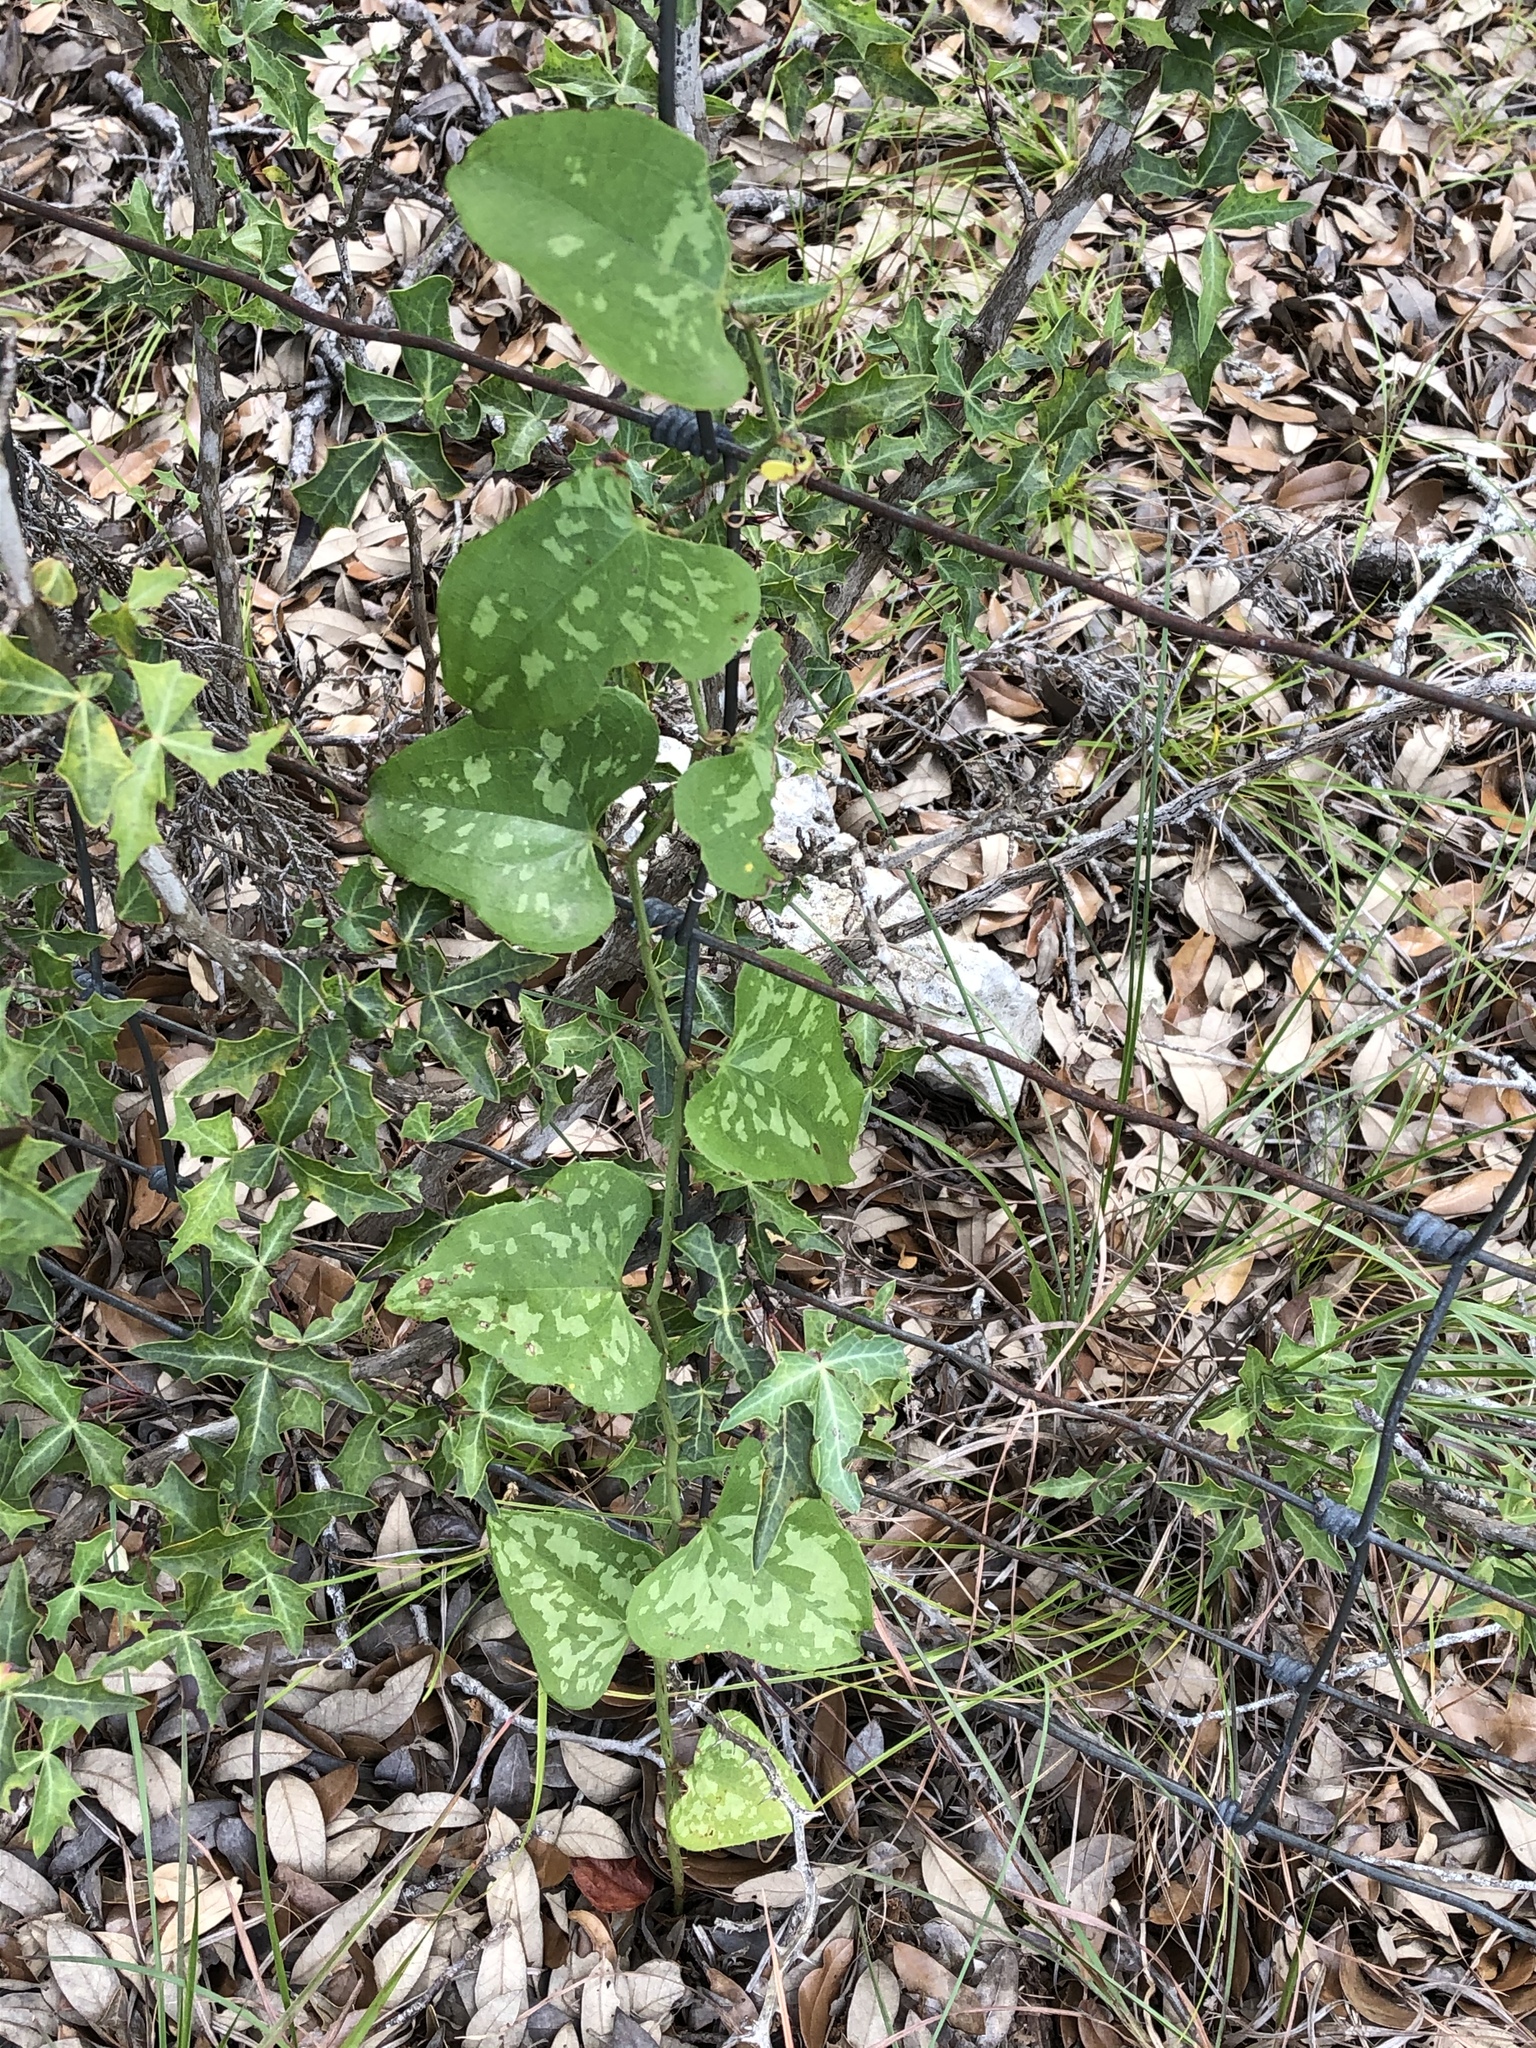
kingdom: Plantae
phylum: Tracheophyta
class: Liliopsida
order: Liliales
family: Smilacaceae
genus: Smilax
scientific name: Smilax bona-nox
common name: Catbrier
